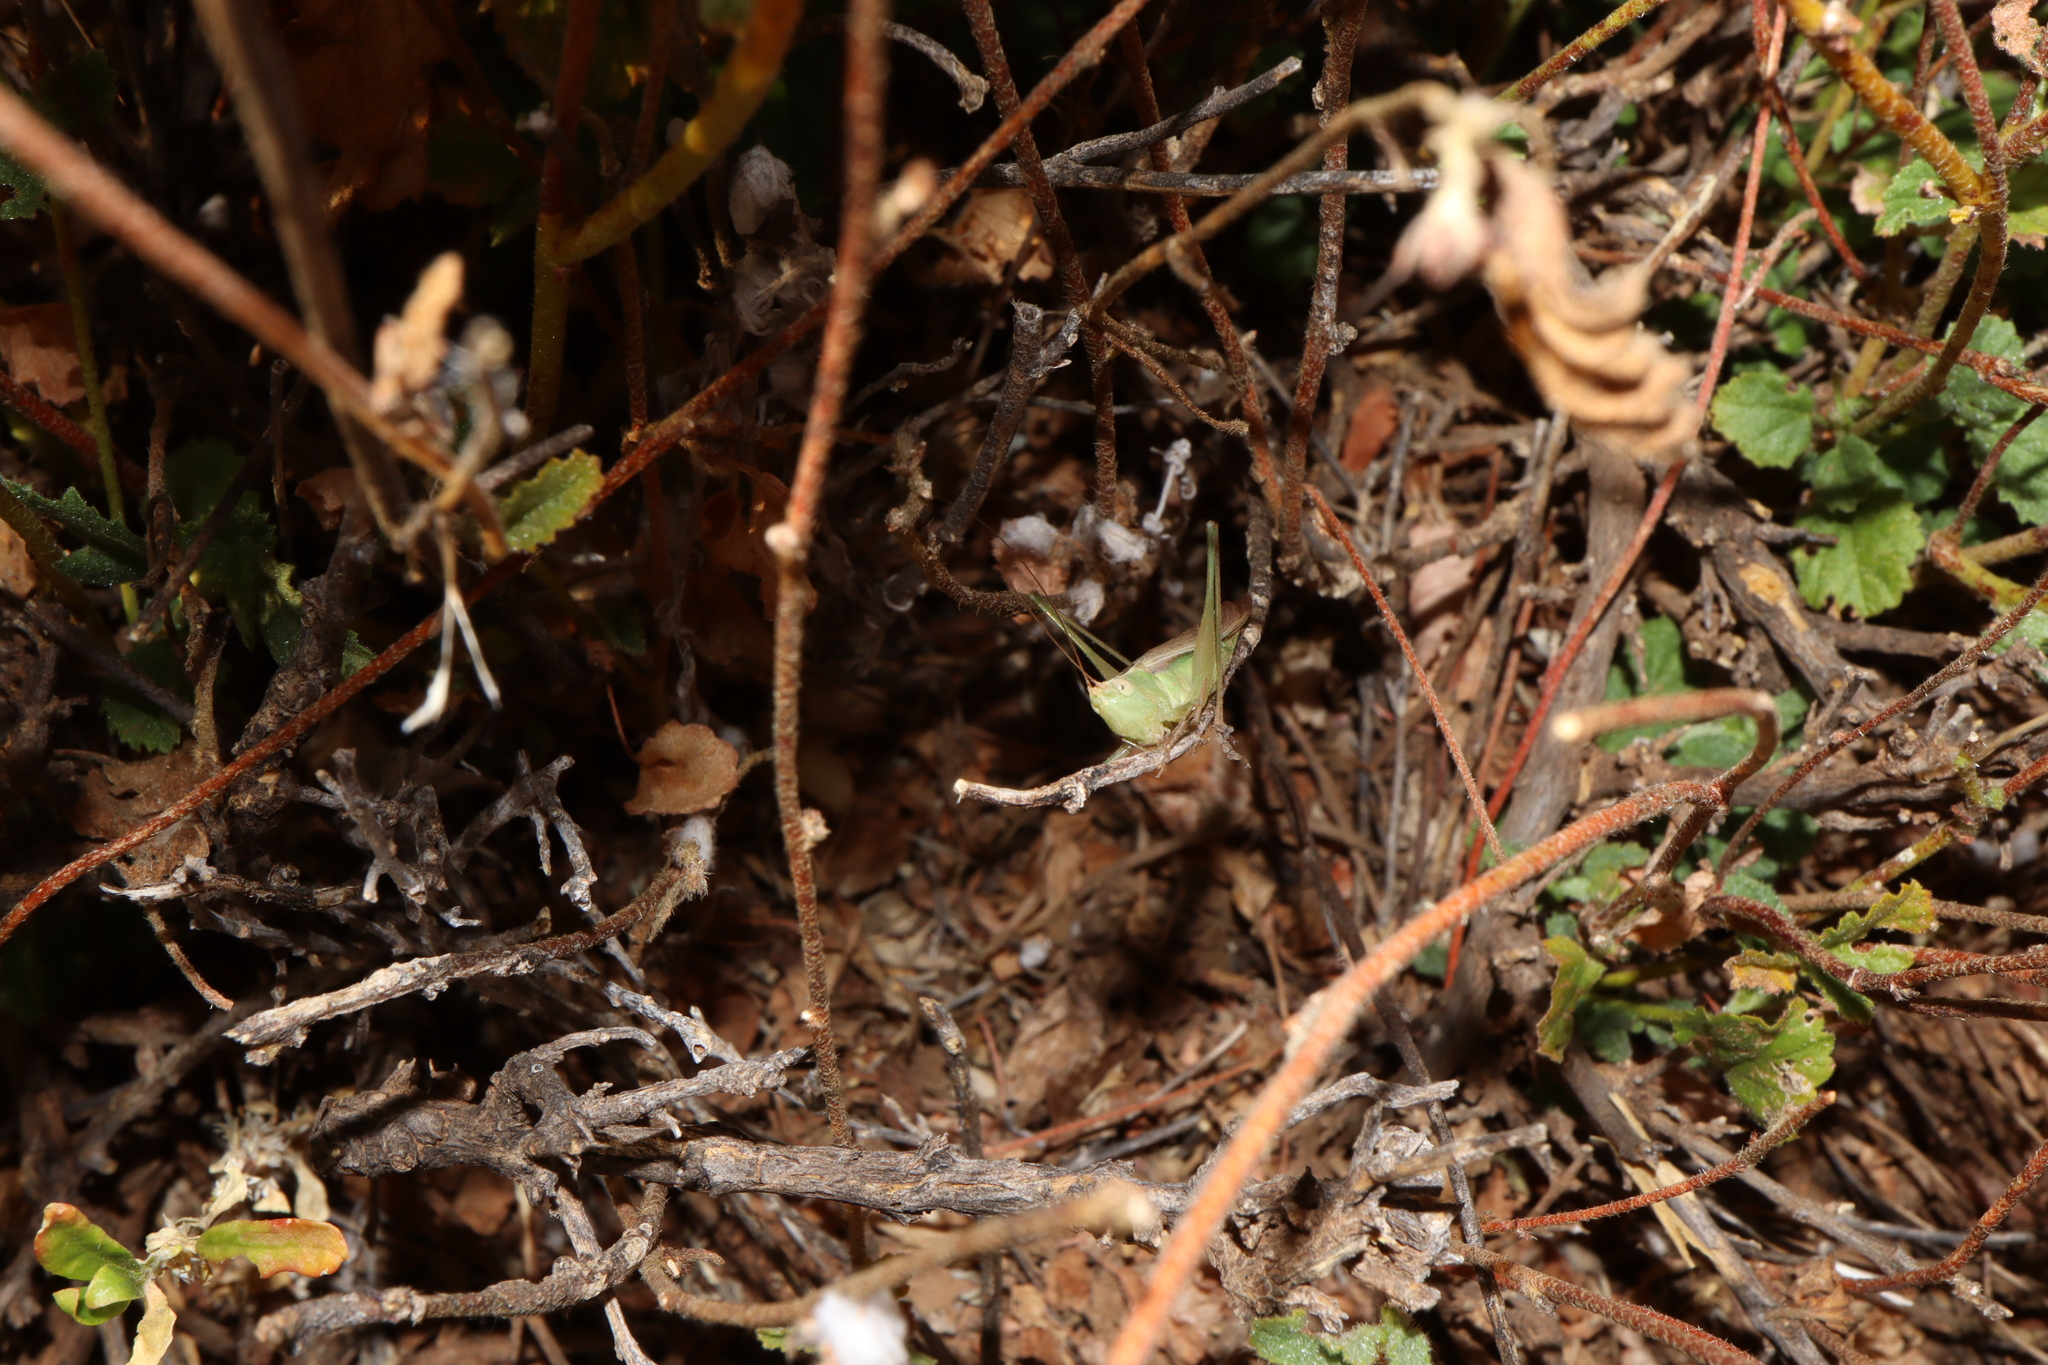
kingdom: Animalia
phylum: Arthropoda
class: Insecta
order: Orthoptera
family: Tettigoniidae
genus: Conocephalus
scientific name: Conocephalus upoluensis
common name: Upolu meadow katydid
